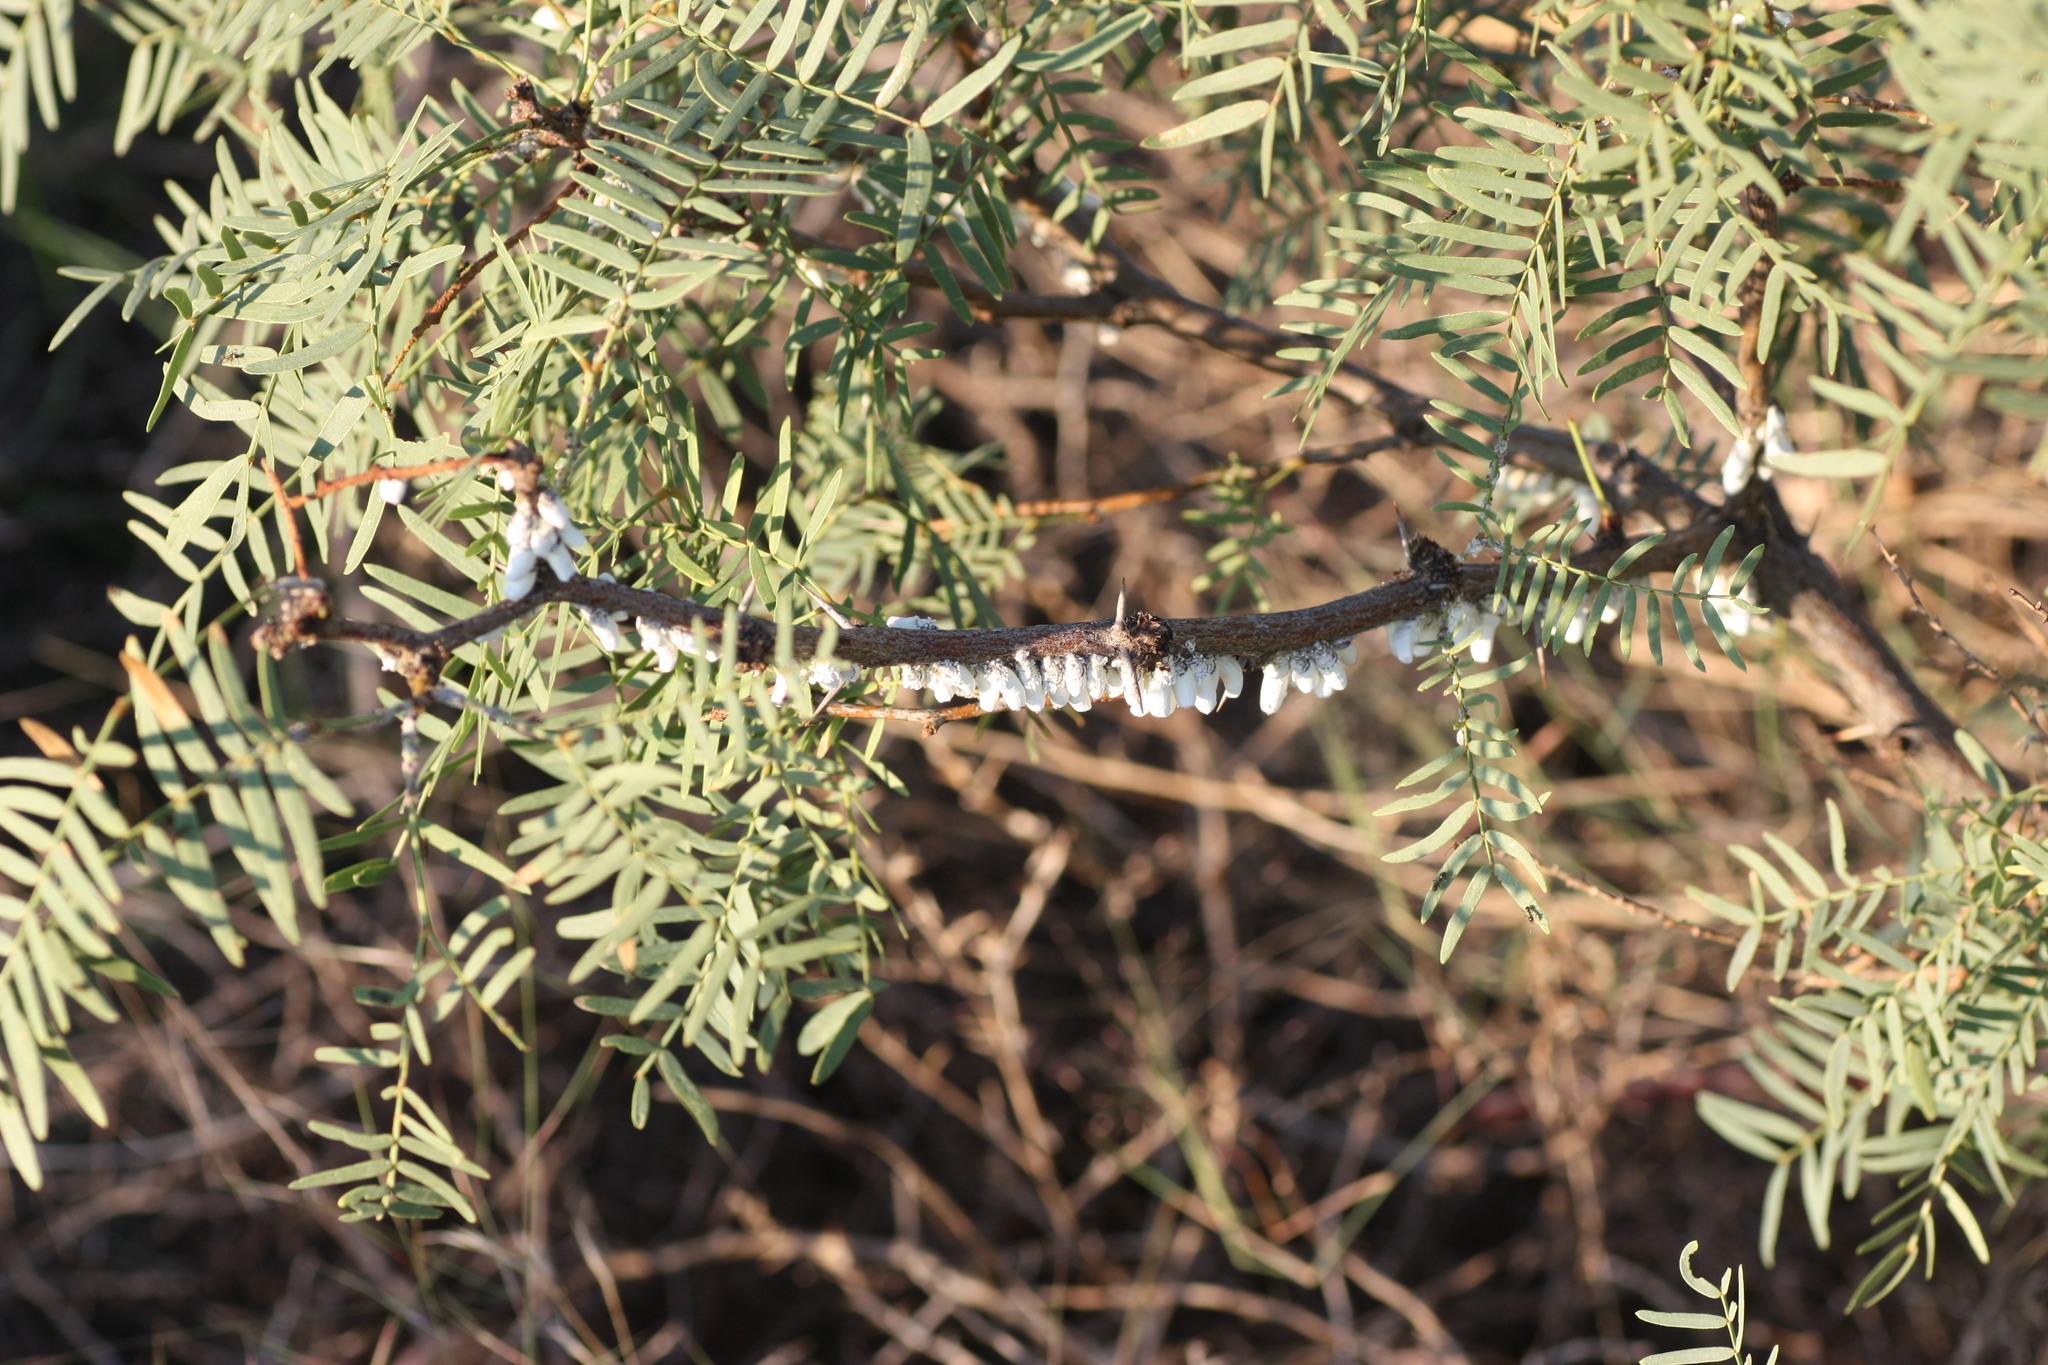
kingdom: Animalia
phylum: Arthropoda
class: Insecta
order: Hemiptera
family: Margarodidae
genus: Crypticerya
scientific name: Crypticerya rileyi
